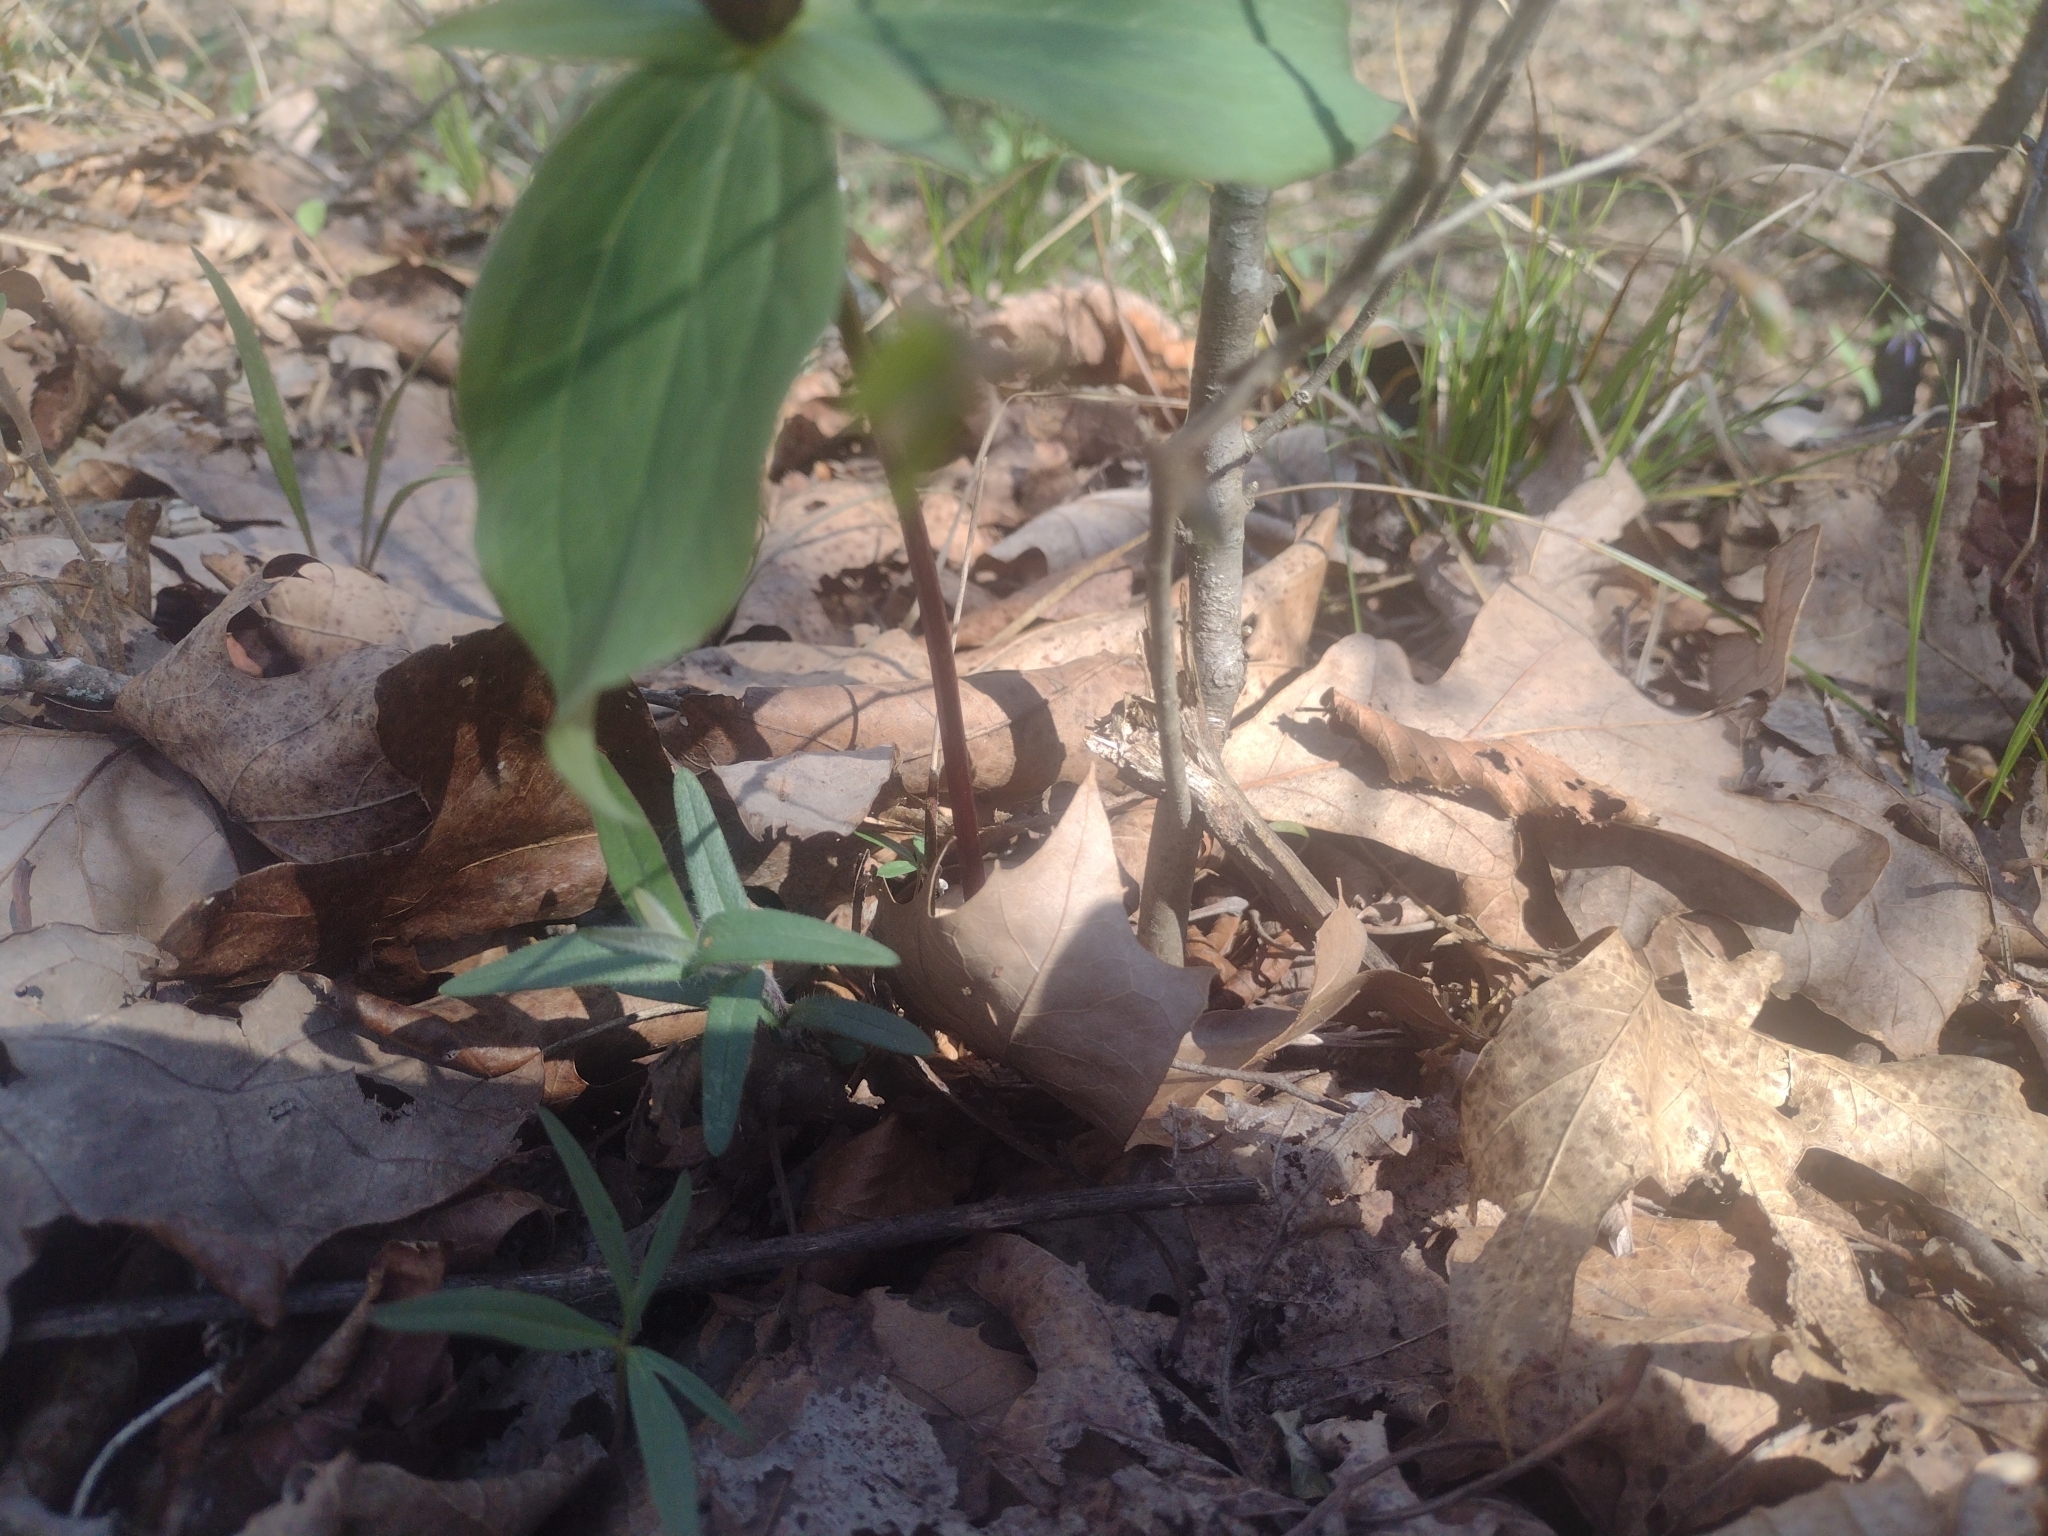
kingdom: Plantae
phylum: Tracheophyta
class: Liliopsida
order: Liliales
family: Melanthiaceae
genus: Trillium
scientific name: Trillium sessile
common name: Sessile trillium
